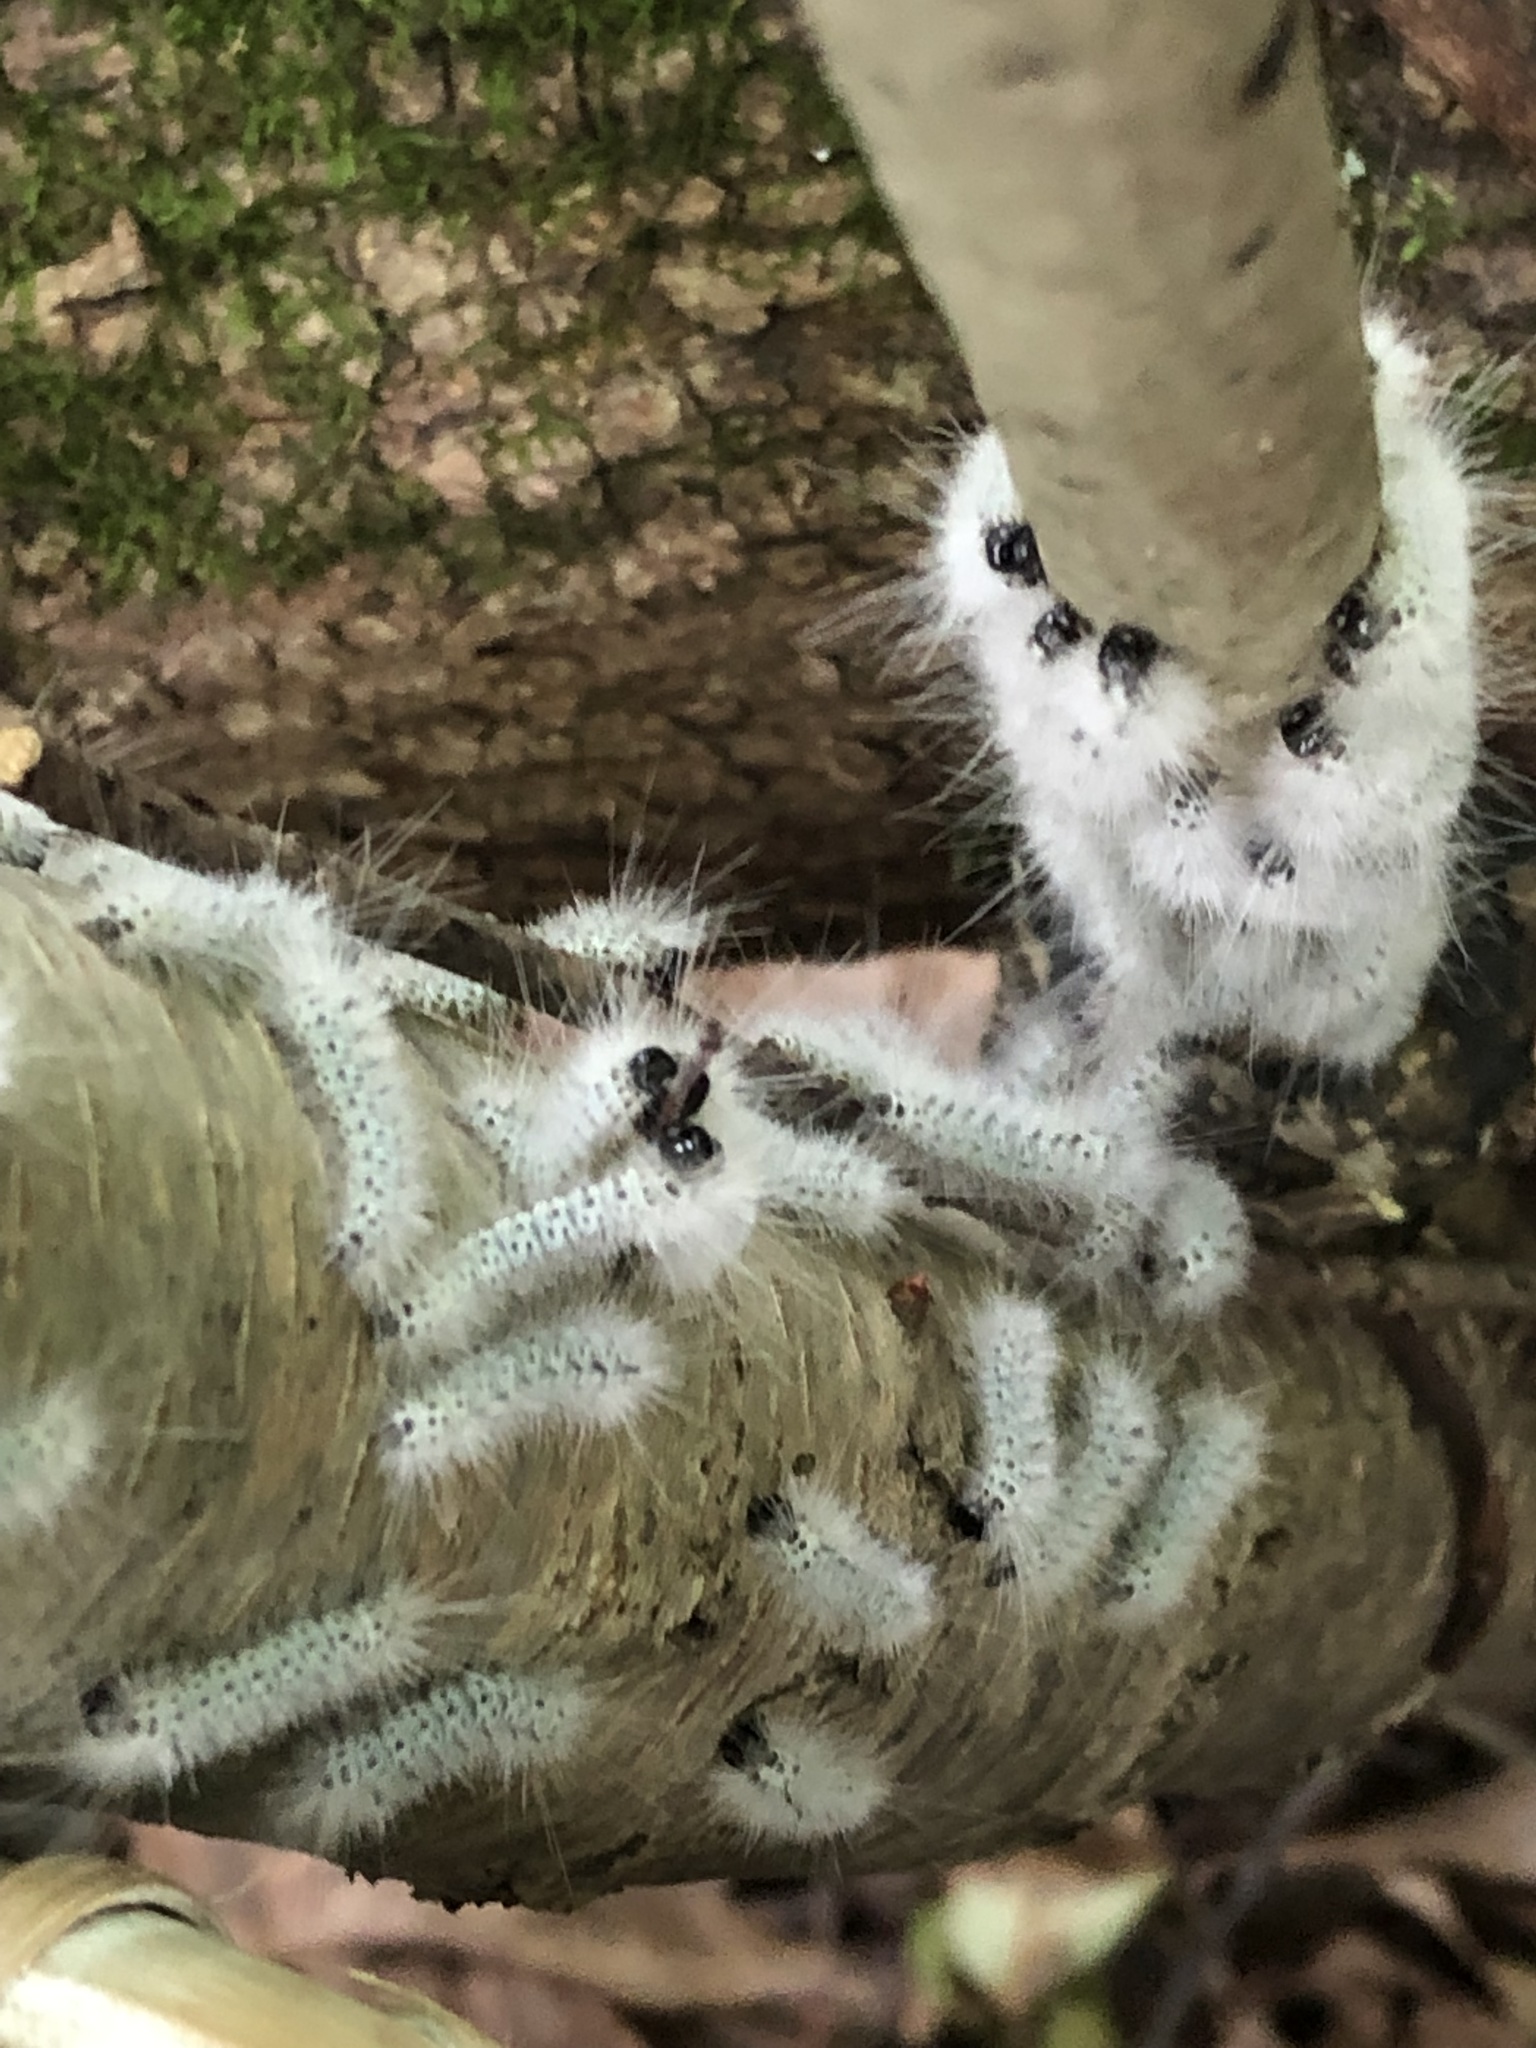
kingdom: Animalia
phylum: Arthropoda
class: Insecta
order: Lepidoptera
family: Erebidae
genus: Lophocampa
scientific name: Lophocampa caryae
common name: Hickory tussock moth
